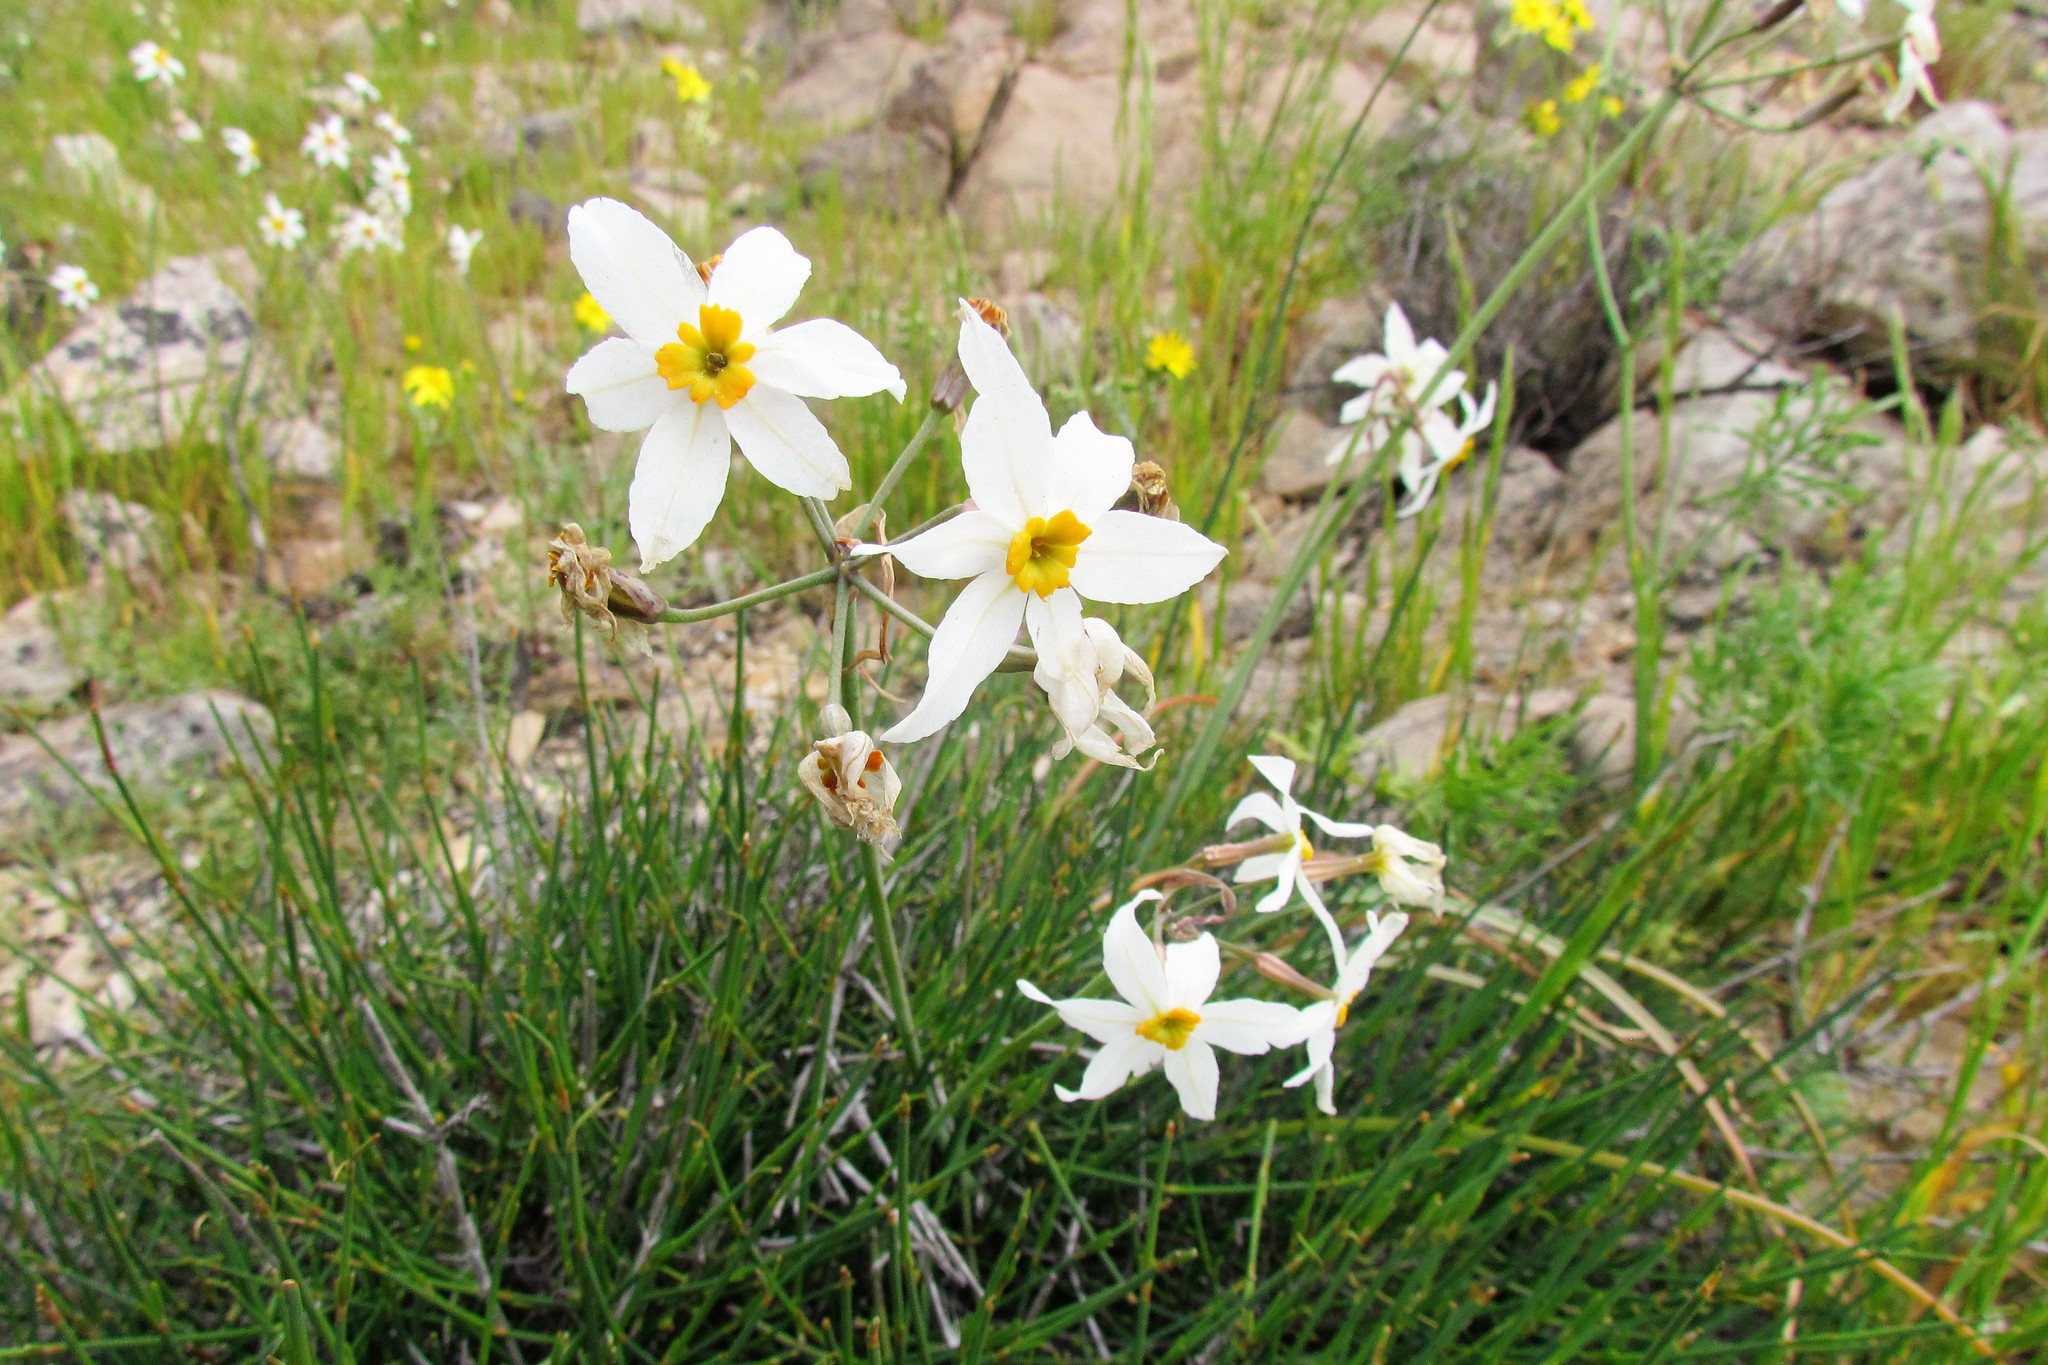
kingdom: Plantae
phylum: Tracheophyta
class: Liliopsida
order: Asparagales
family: Amaryllidaceae
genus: Leucocoryne
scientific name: Leucocoryne narcissoides
